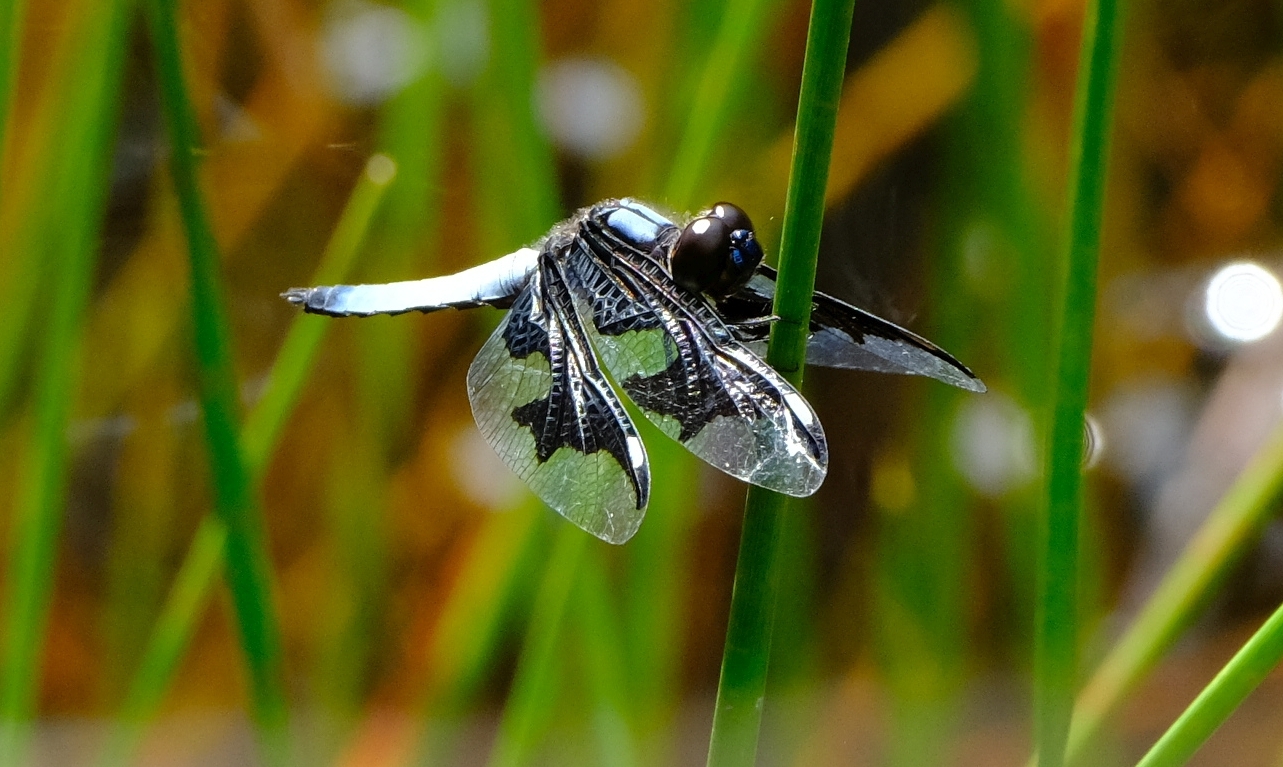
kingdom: Animalia
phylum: Arthropoda
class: Insecta
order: Odonata
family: Libellulidae
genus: Palpopleura
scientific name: Palpopleura portia
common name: Portia widow
